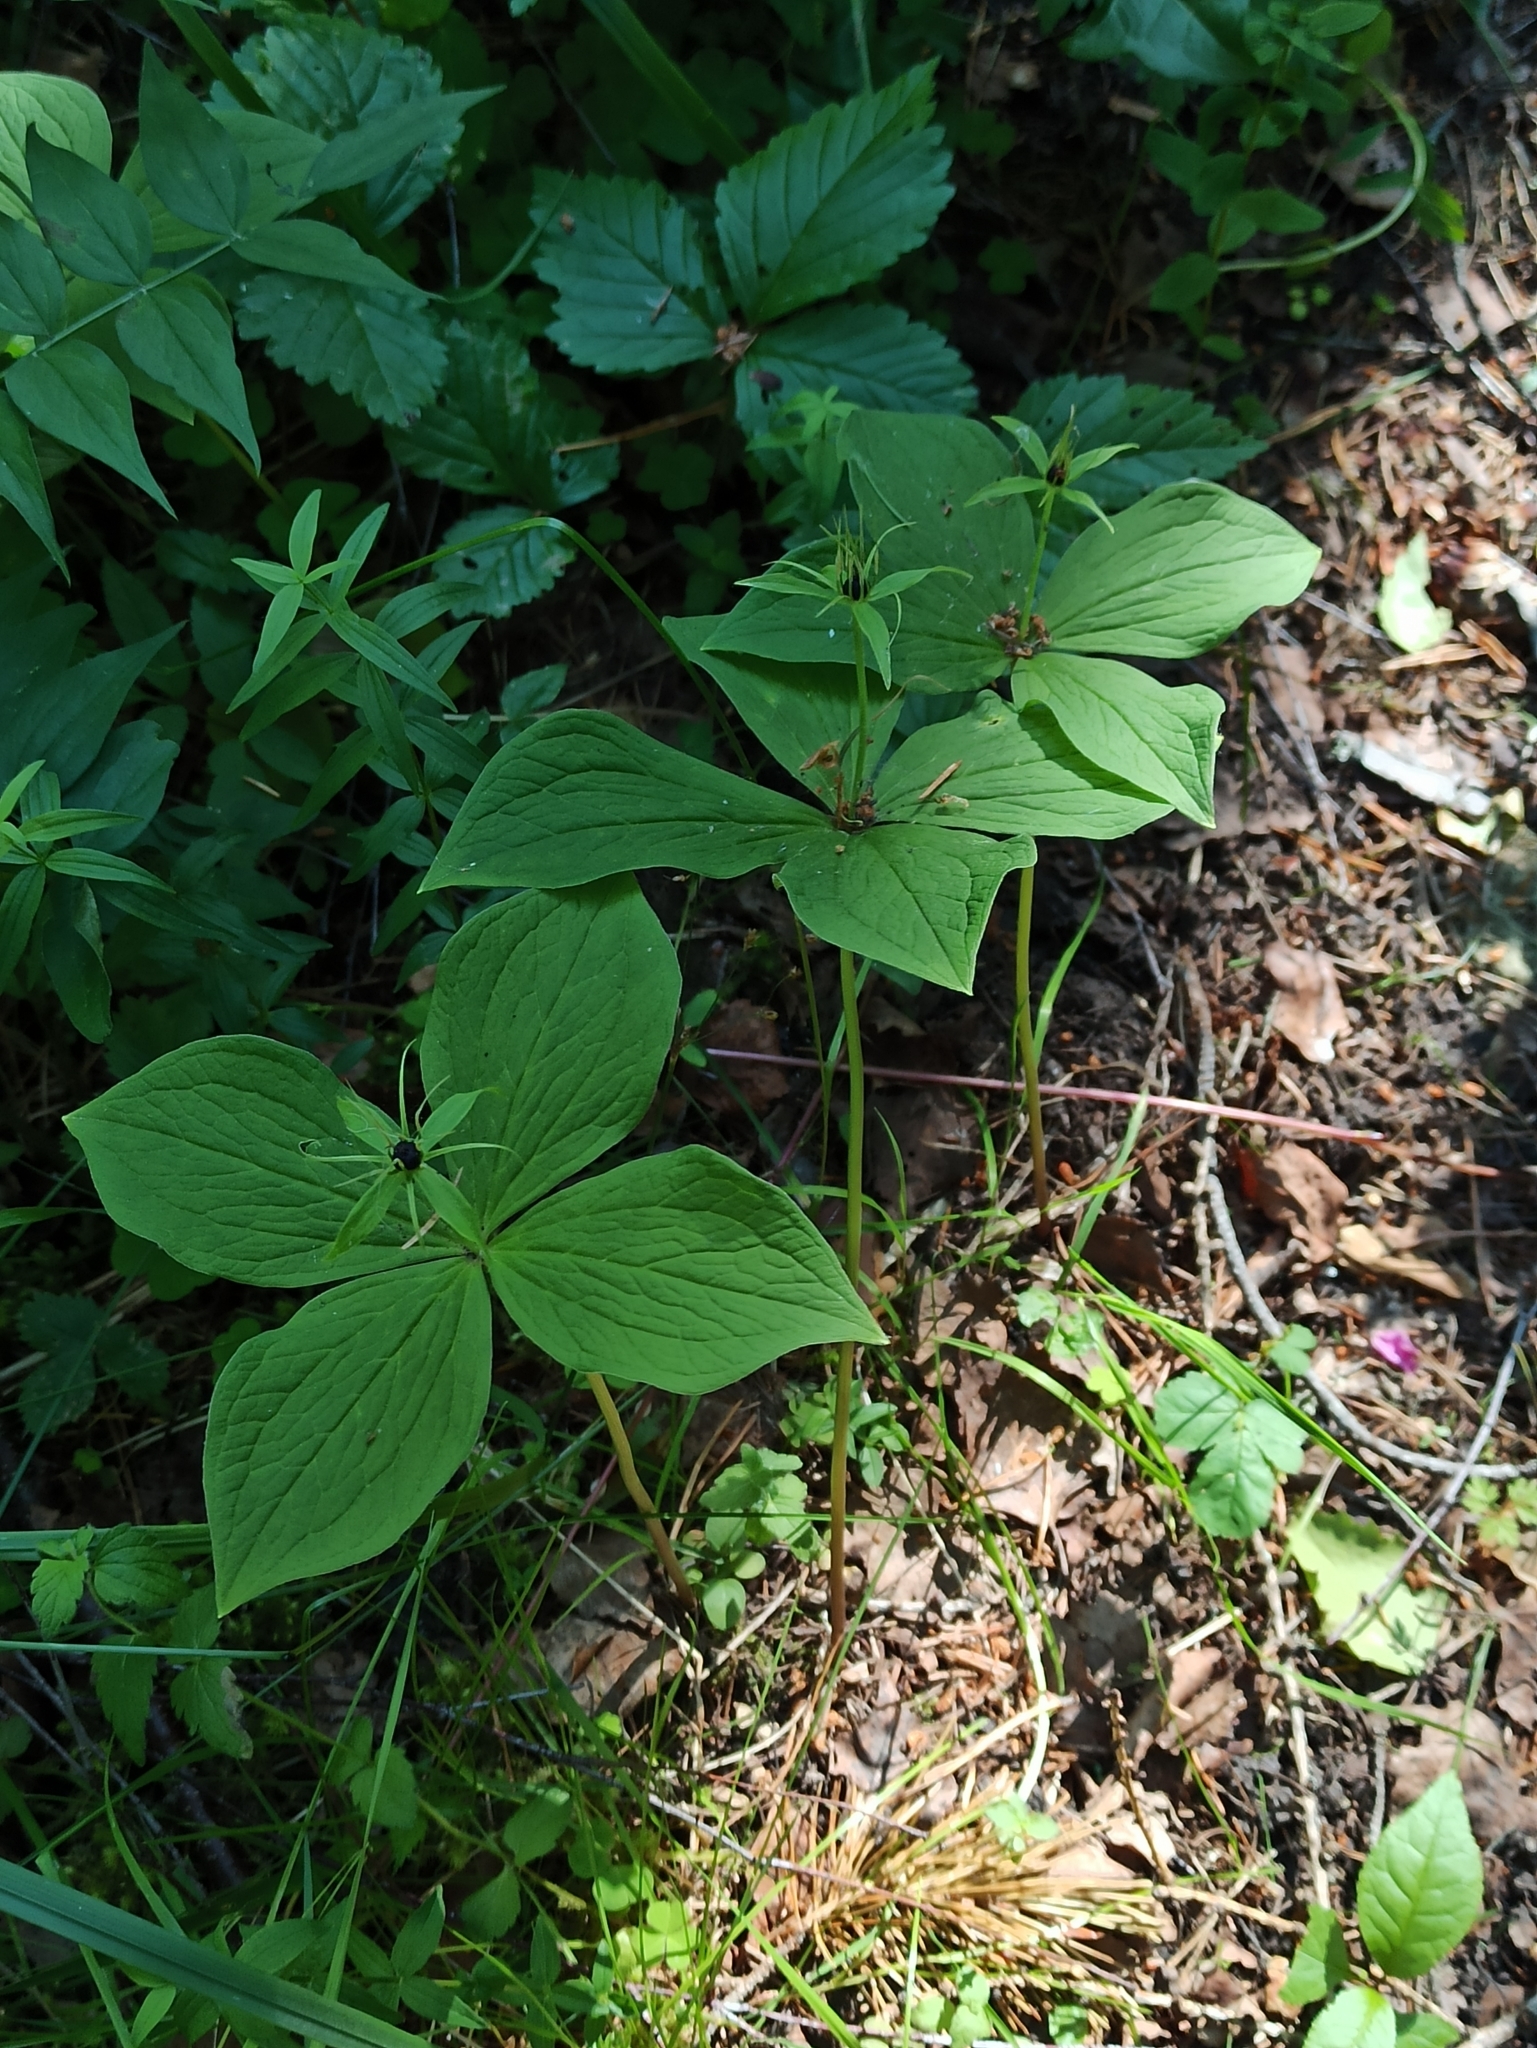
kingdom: Plantae
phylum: Tracheophyta
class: Liliopsida
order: Liliales
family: Melanthiaceae
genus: Paris
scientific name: Paris quadrifolia
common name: Herb-paris
